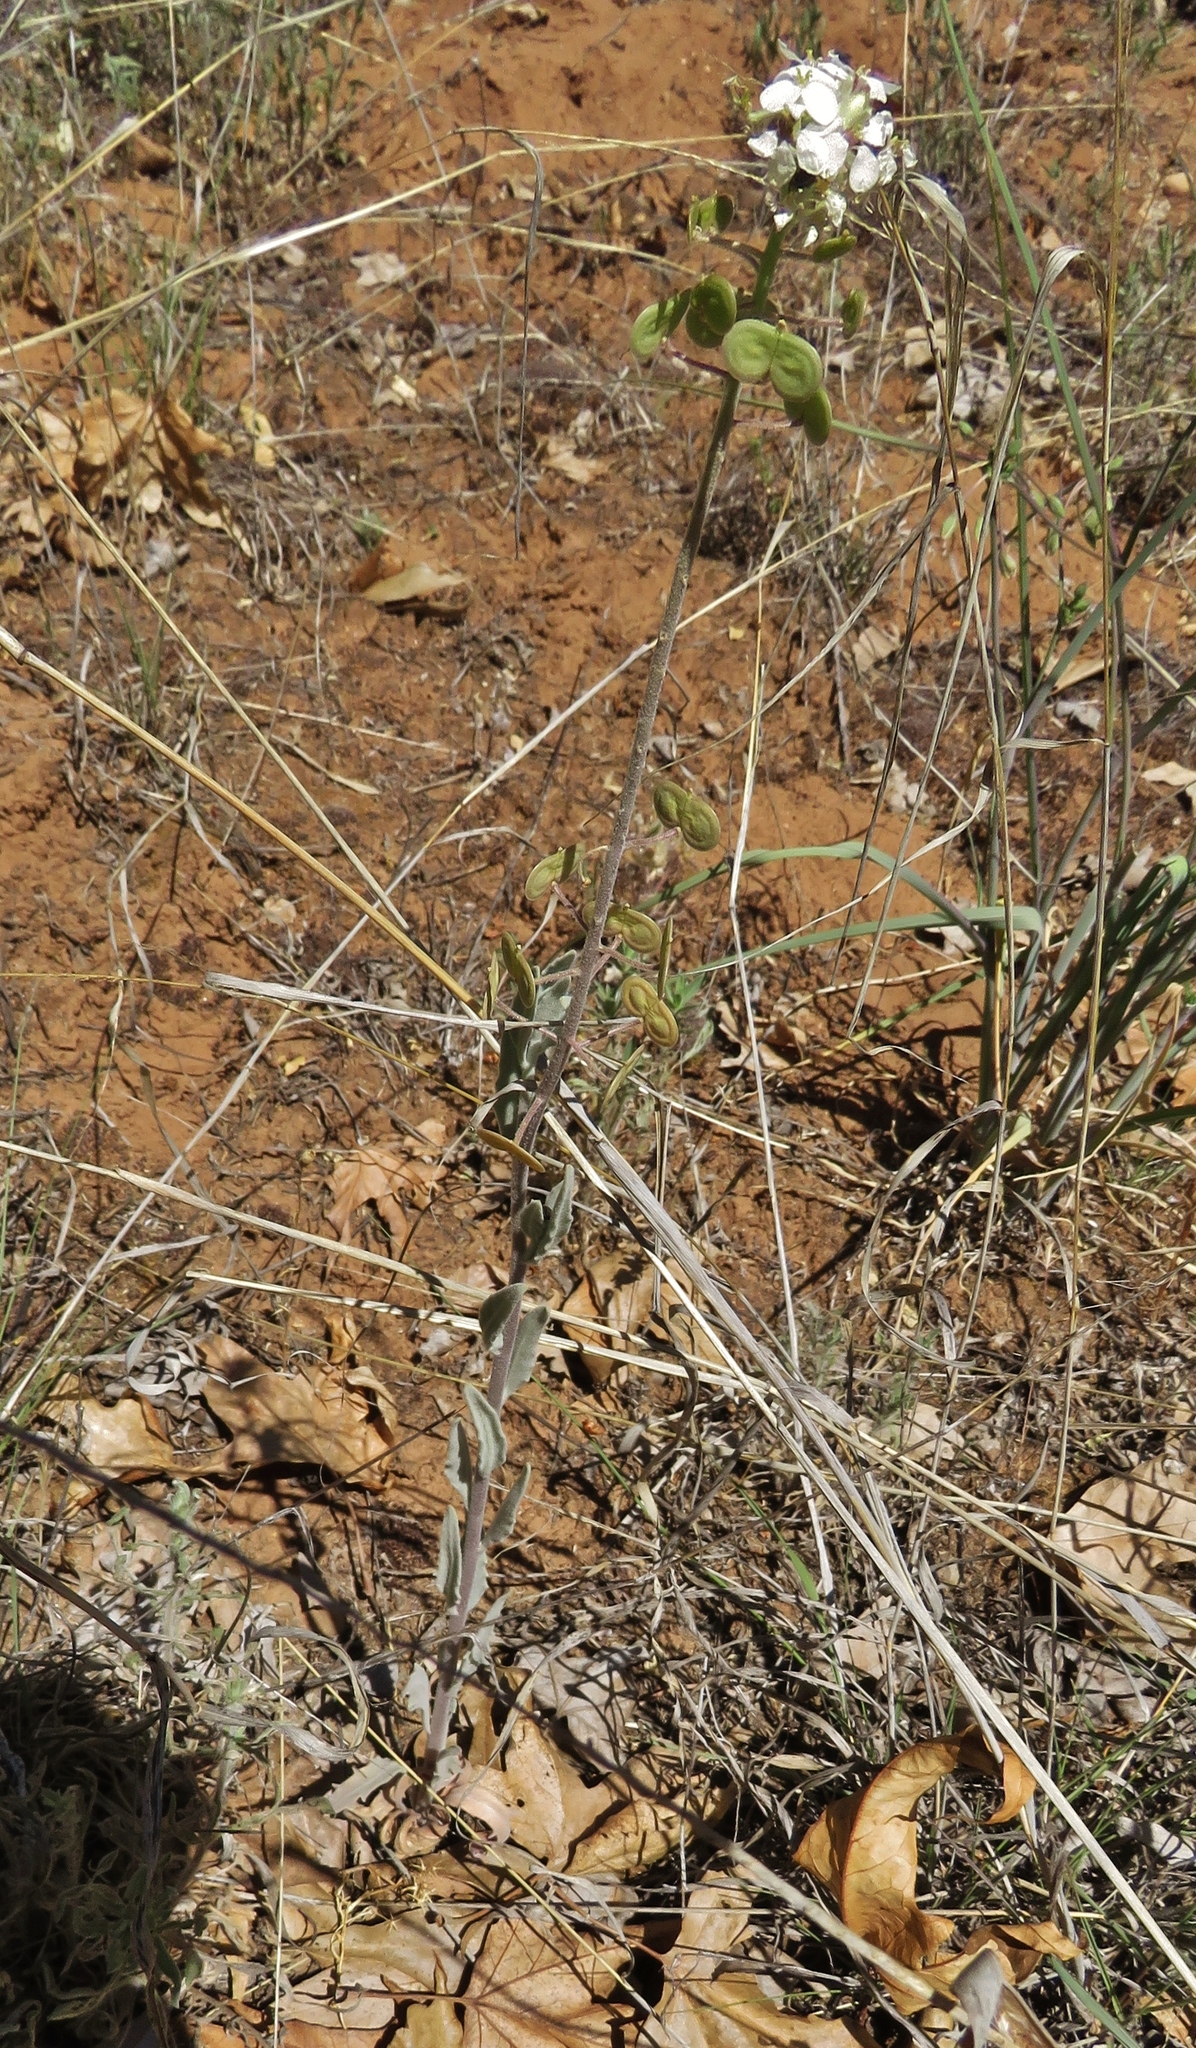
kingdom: Plantae
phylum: Tracheophyta
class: Magnoliopsida
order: Brassicales
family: Brassicaceae
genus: Dimorphocarpa
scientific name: Dimorphocarpa wislizenii
